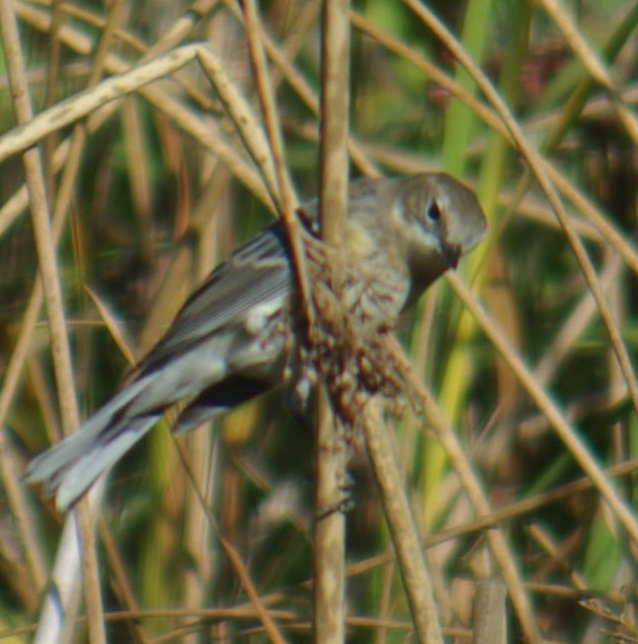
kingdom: Animalia
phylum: Chordata
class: Aves
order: Passeriformes
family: Parulidae
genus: Setophaga
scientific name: Setophaga coronata
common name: Myrtle warbler
